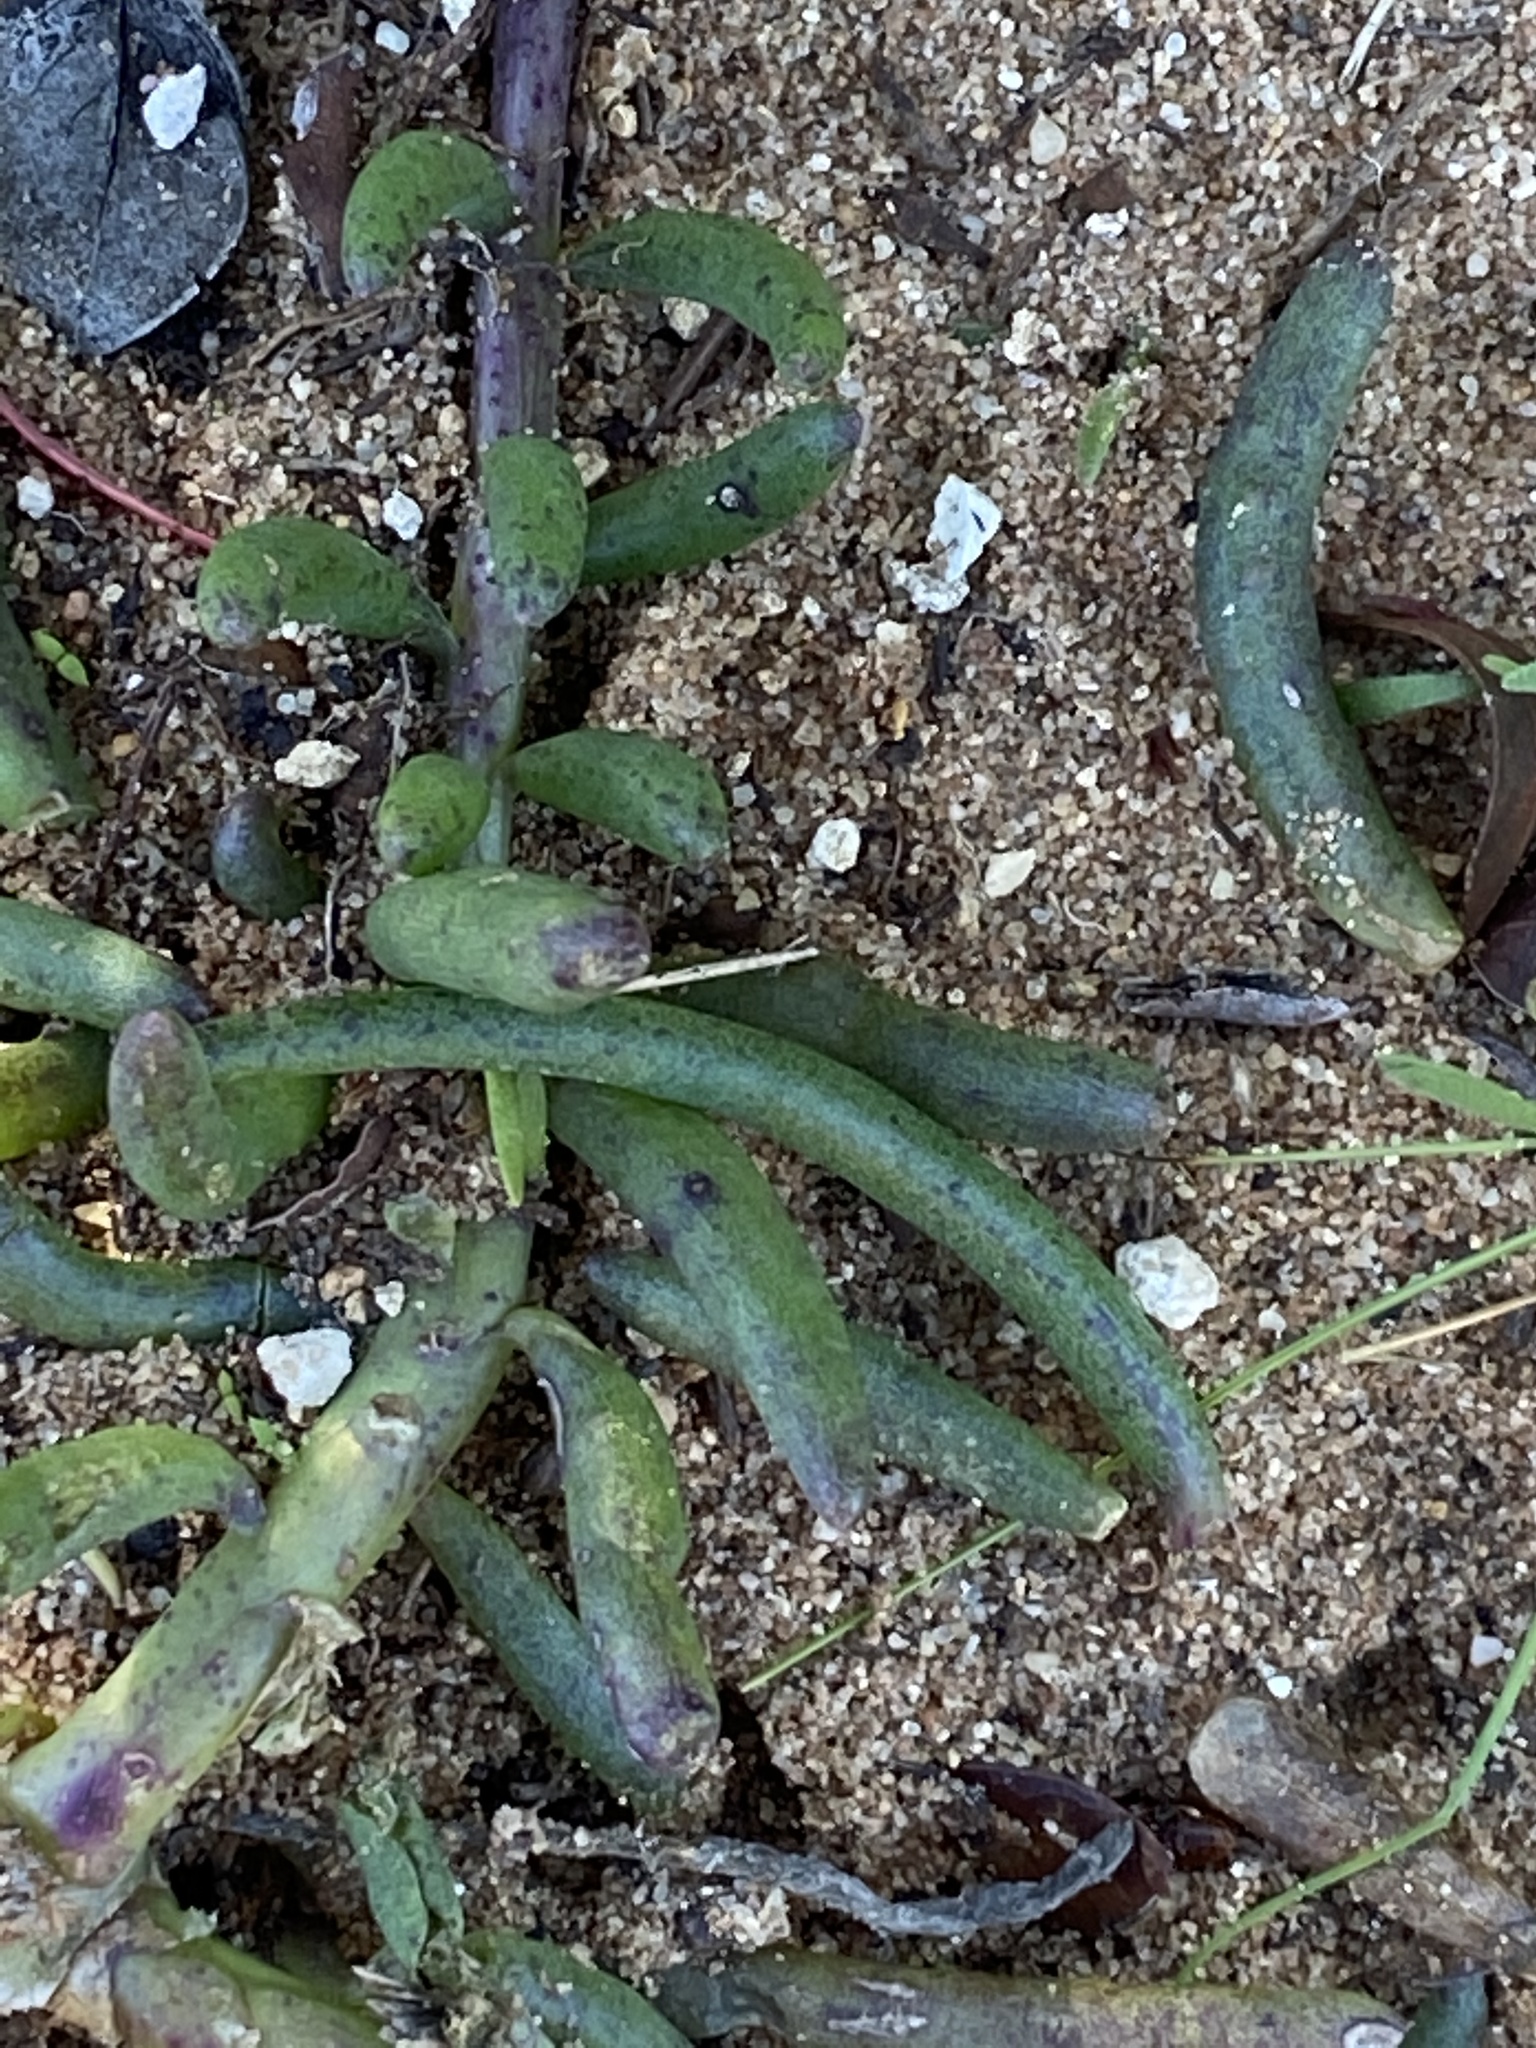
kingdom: Plantae
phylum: Tracheophyta
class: Magnoliopsida
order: Asterales
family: Asteraceae
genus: Crassothonna
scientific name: Crassothonna alba
